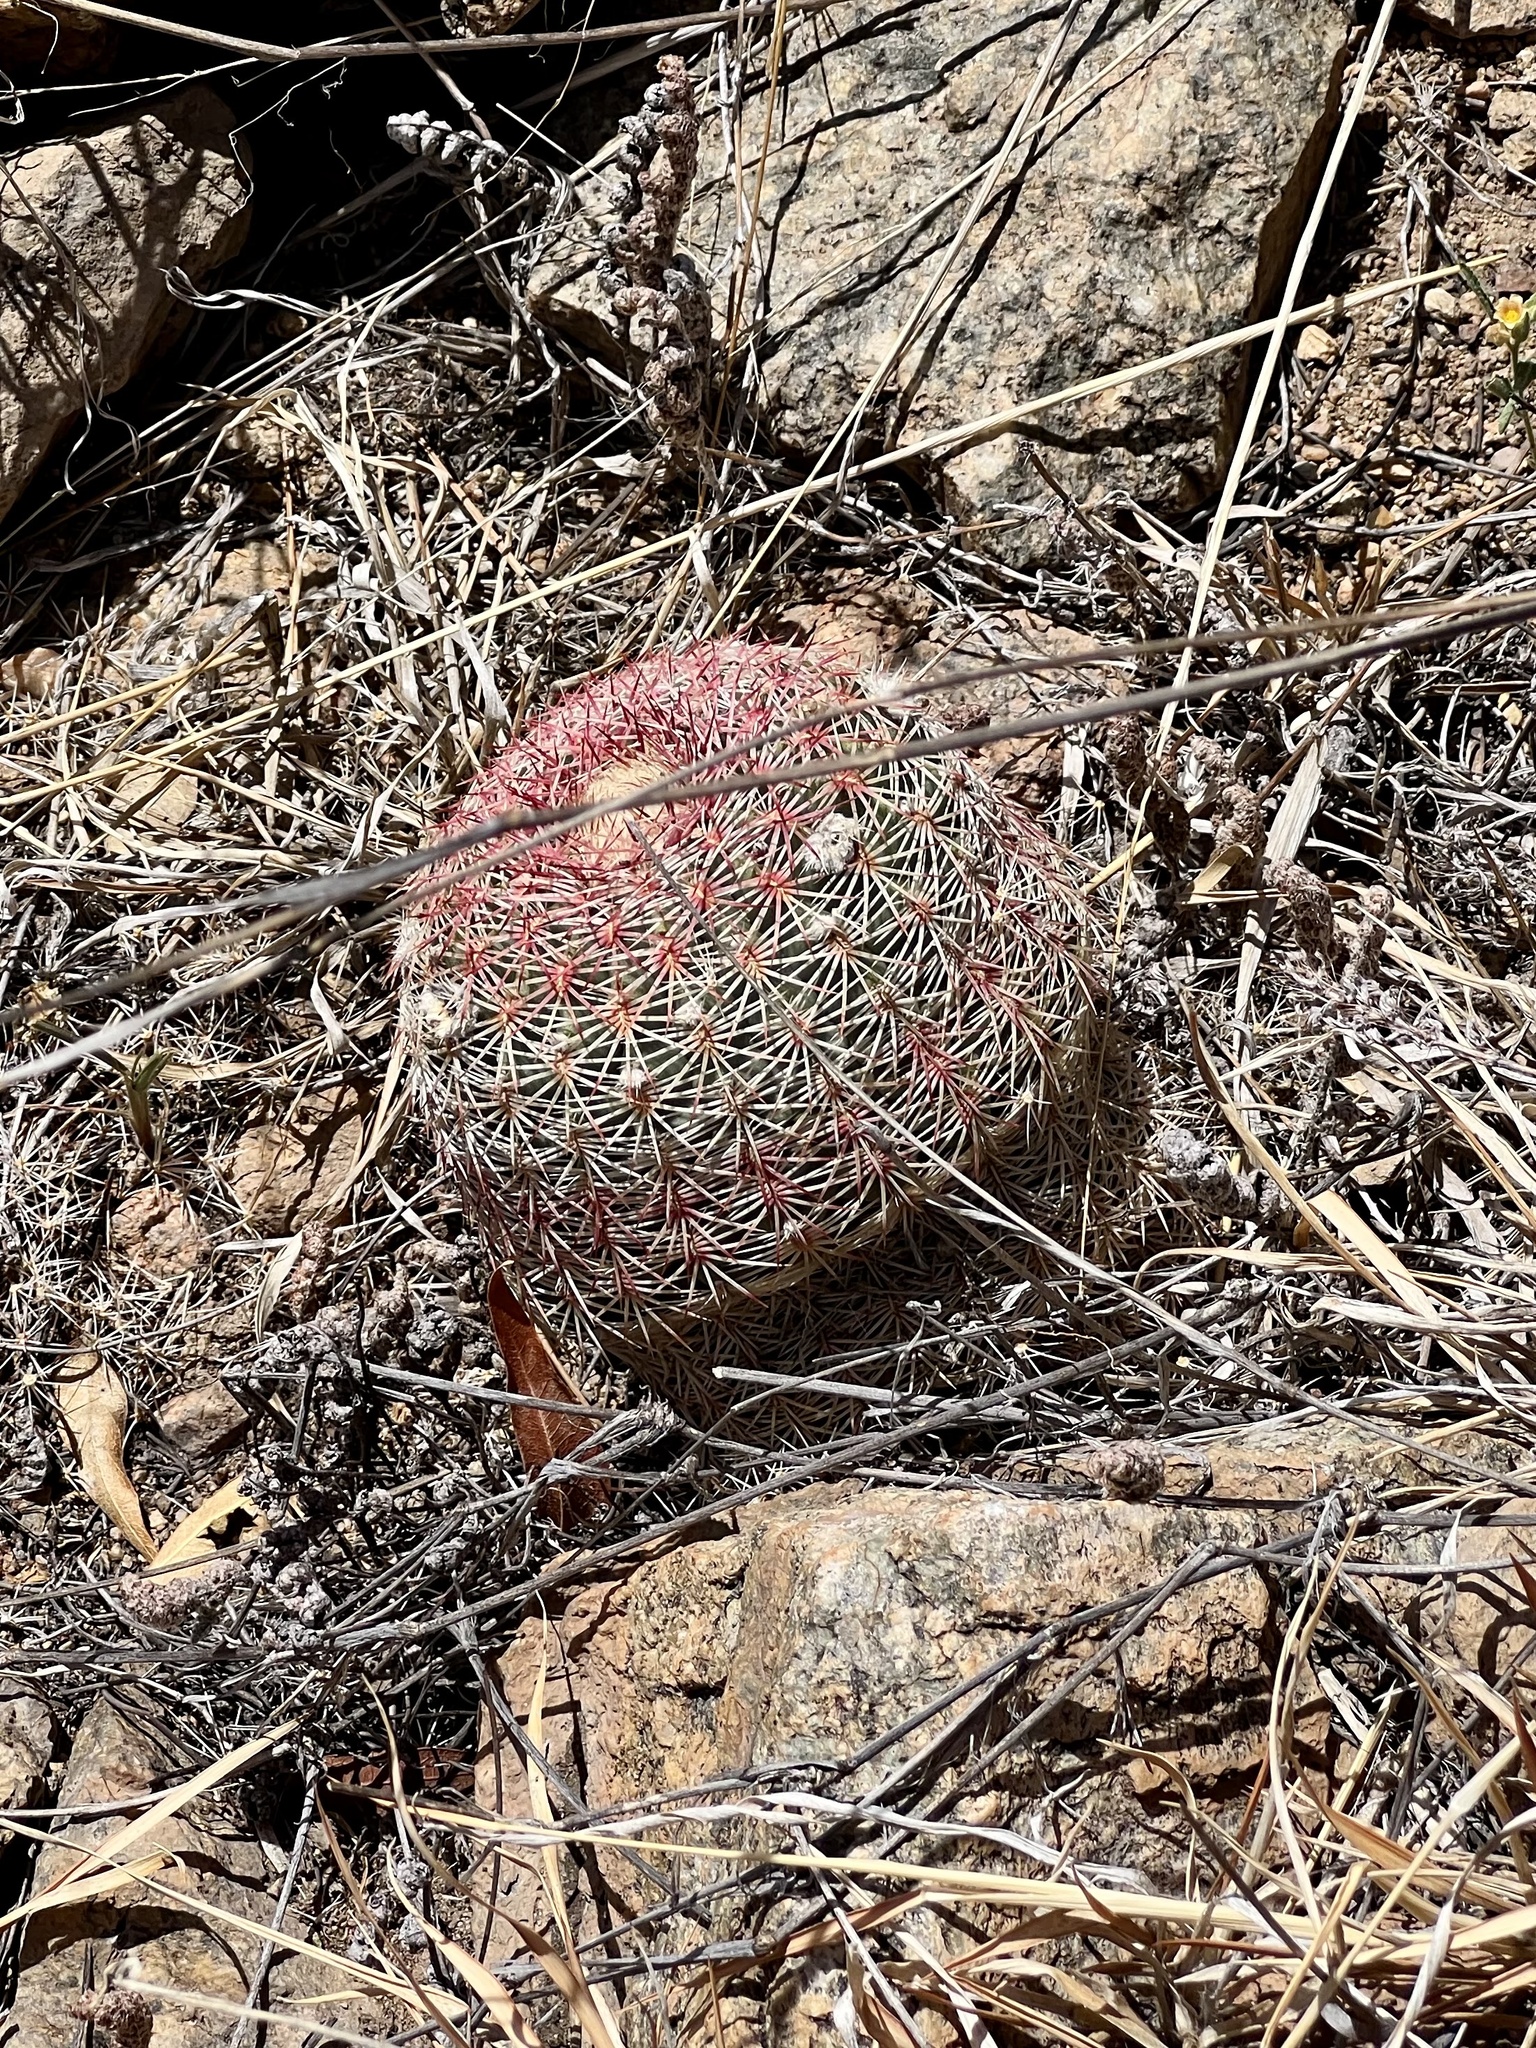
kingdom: Plantae
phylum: Tracheophyta
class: Magnoliopsida
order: Caryophyllales
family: Cactaceae
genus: Echinocereus
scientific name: Echinocereus rigidissimus
